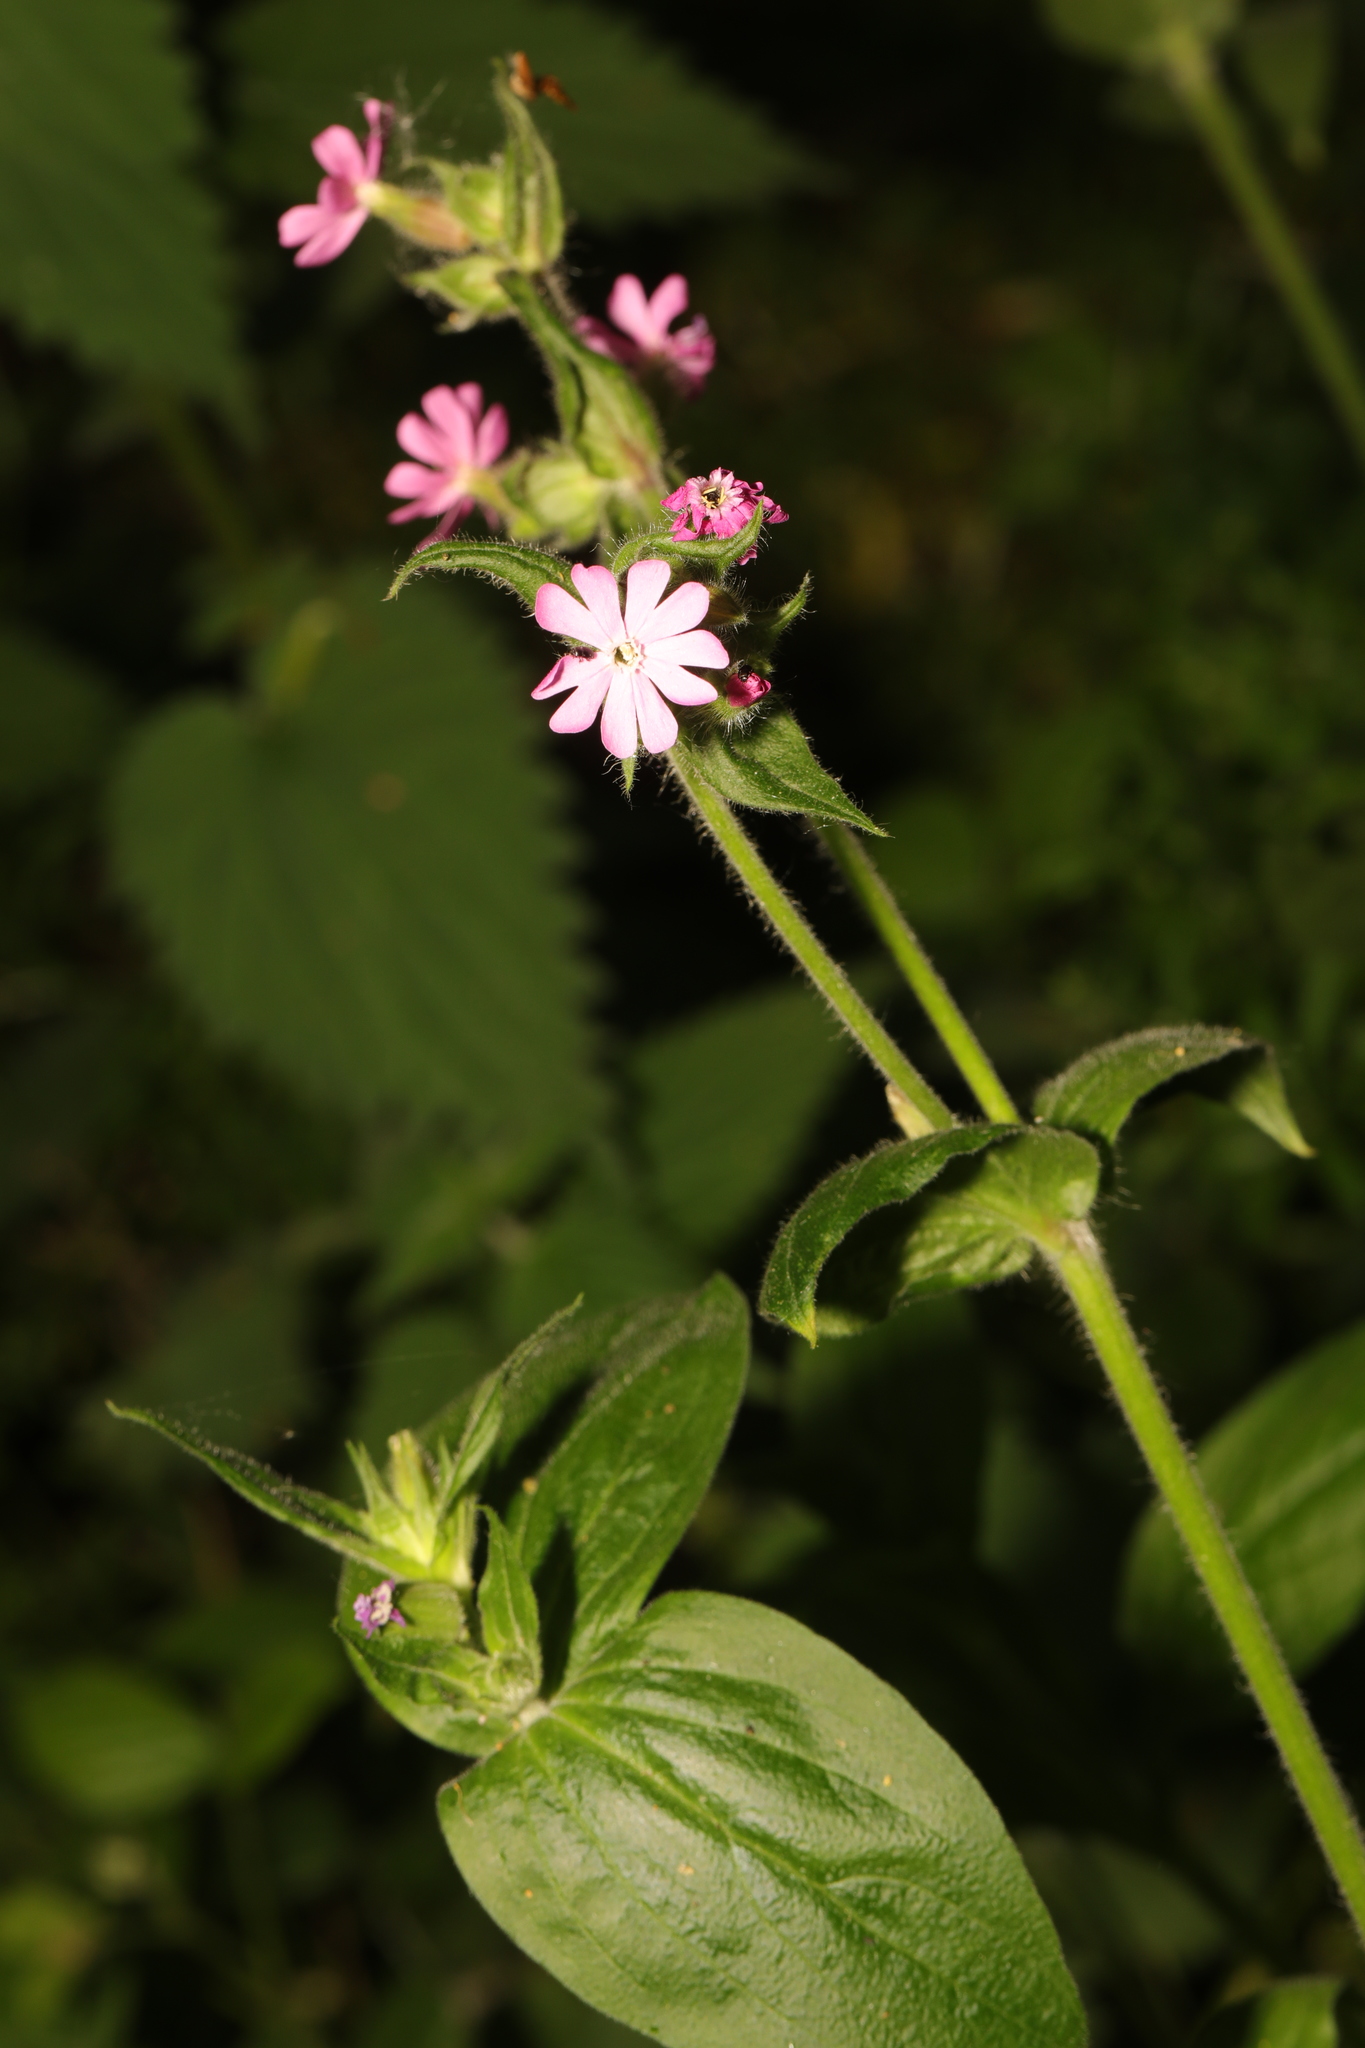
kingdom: Plantae
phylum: Tracheophyta
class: Magnoliopsida
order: Caryophyllales
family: Caryophyllaceae
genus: Silene
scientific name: Silene dioica
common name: Red campion
